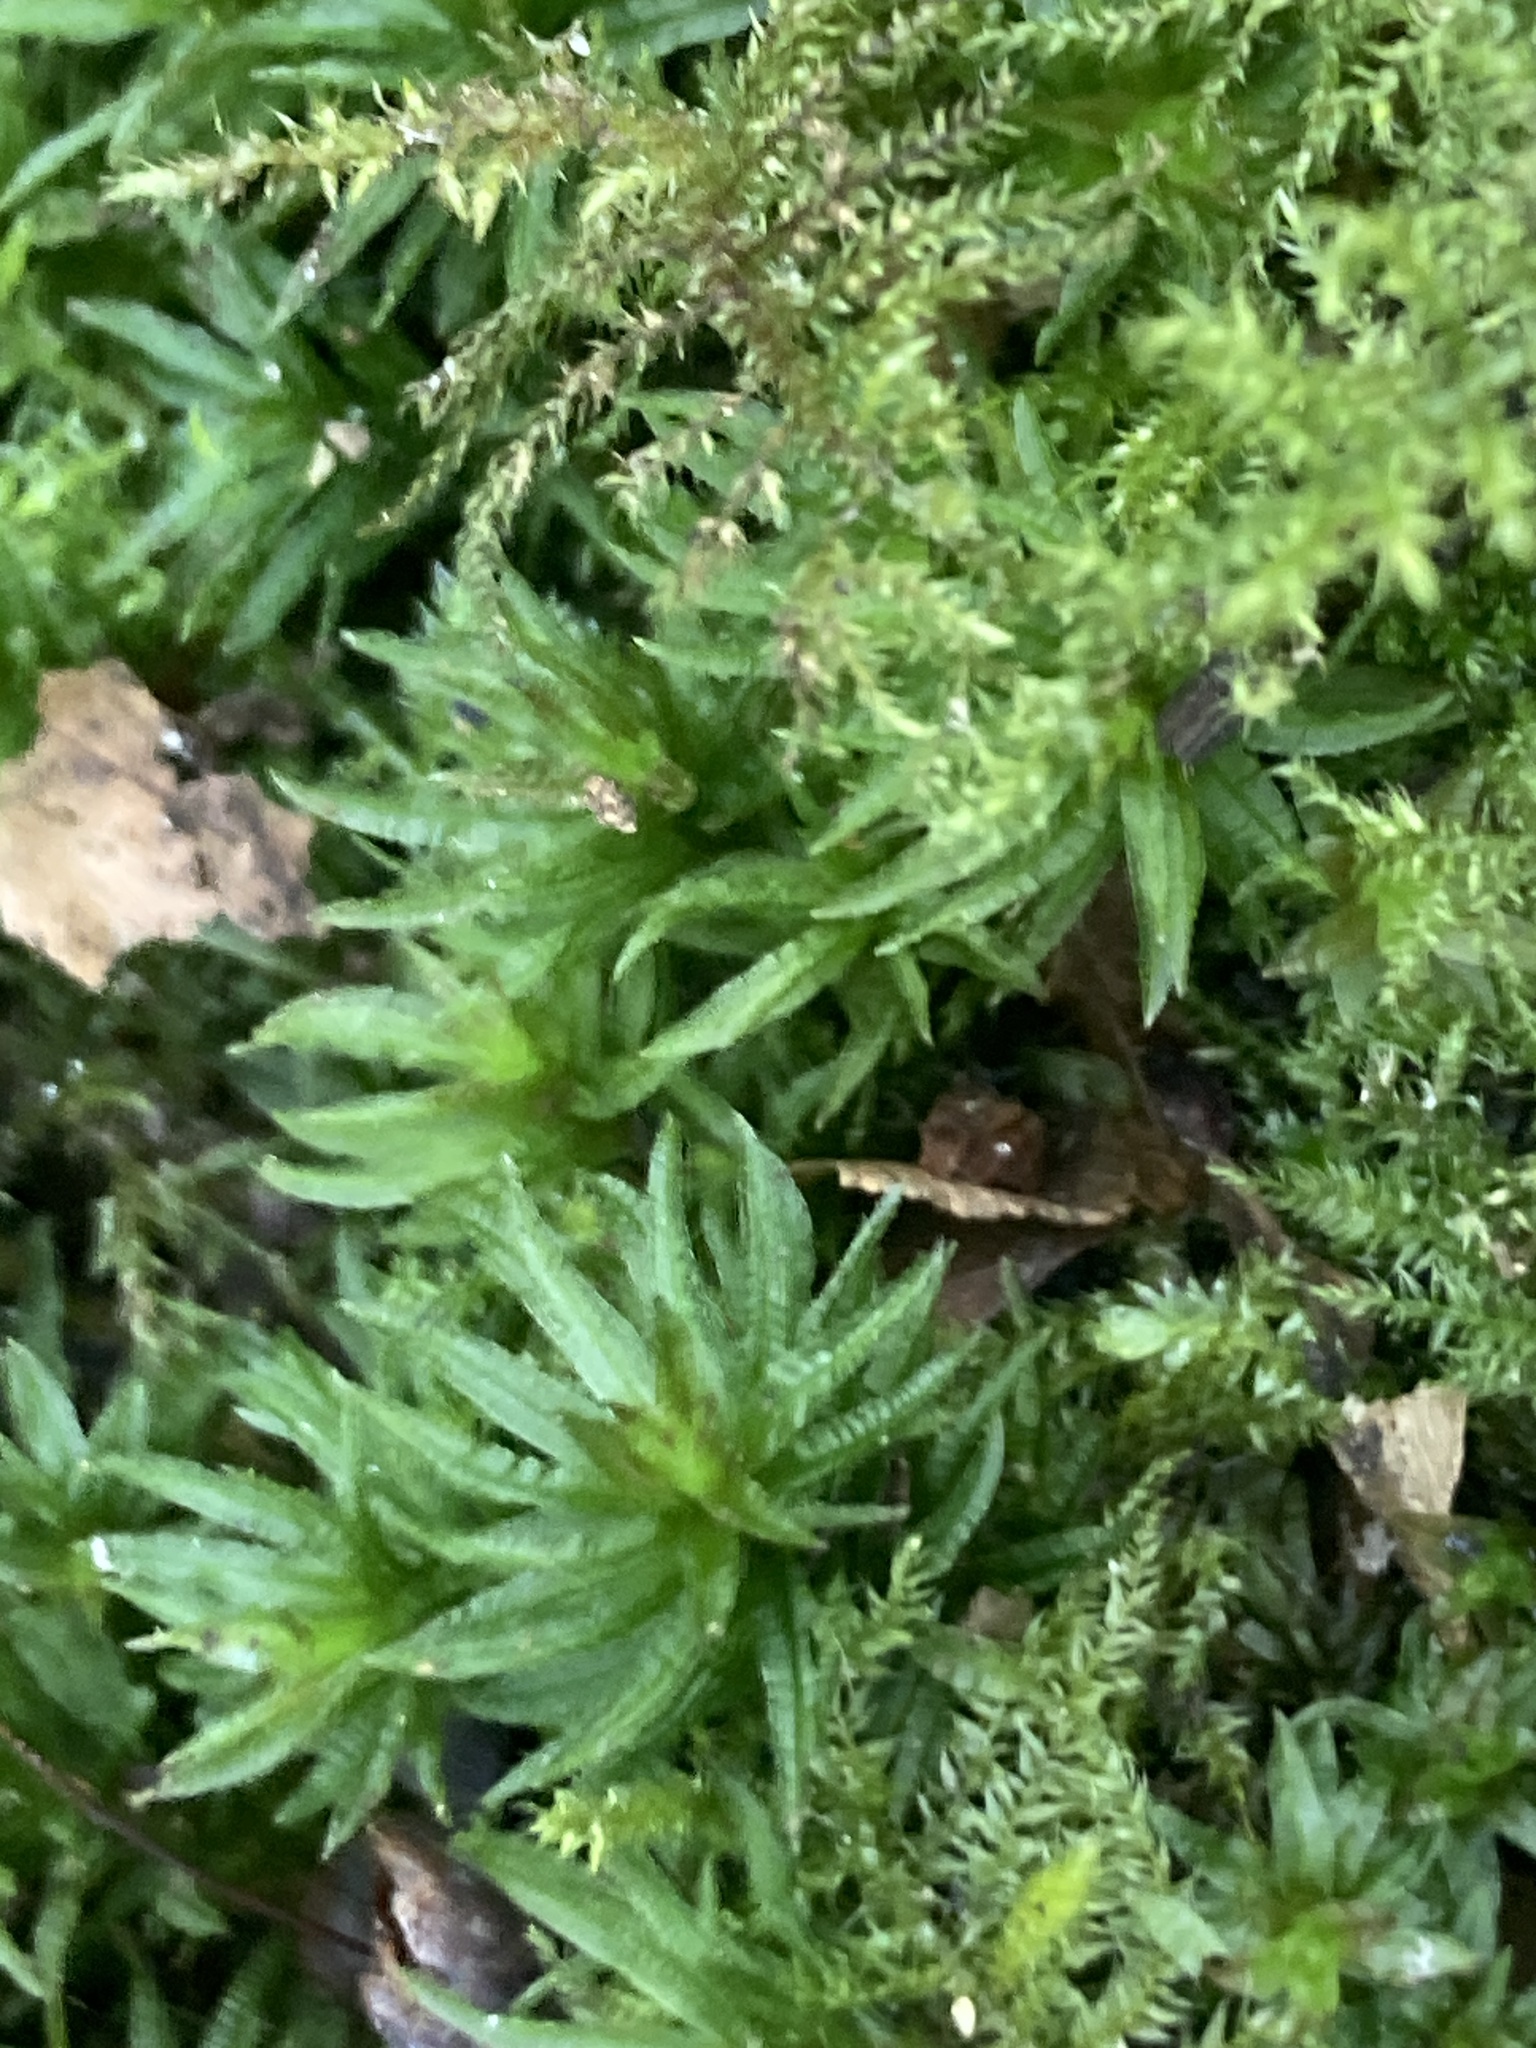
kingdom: Plantae
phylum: Bryophyta
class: Polytrichopsida
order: Polytrichales
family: Polytrichaceae
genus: Atrichum
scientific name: Atrichum undulatum
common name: Common smoothcap
